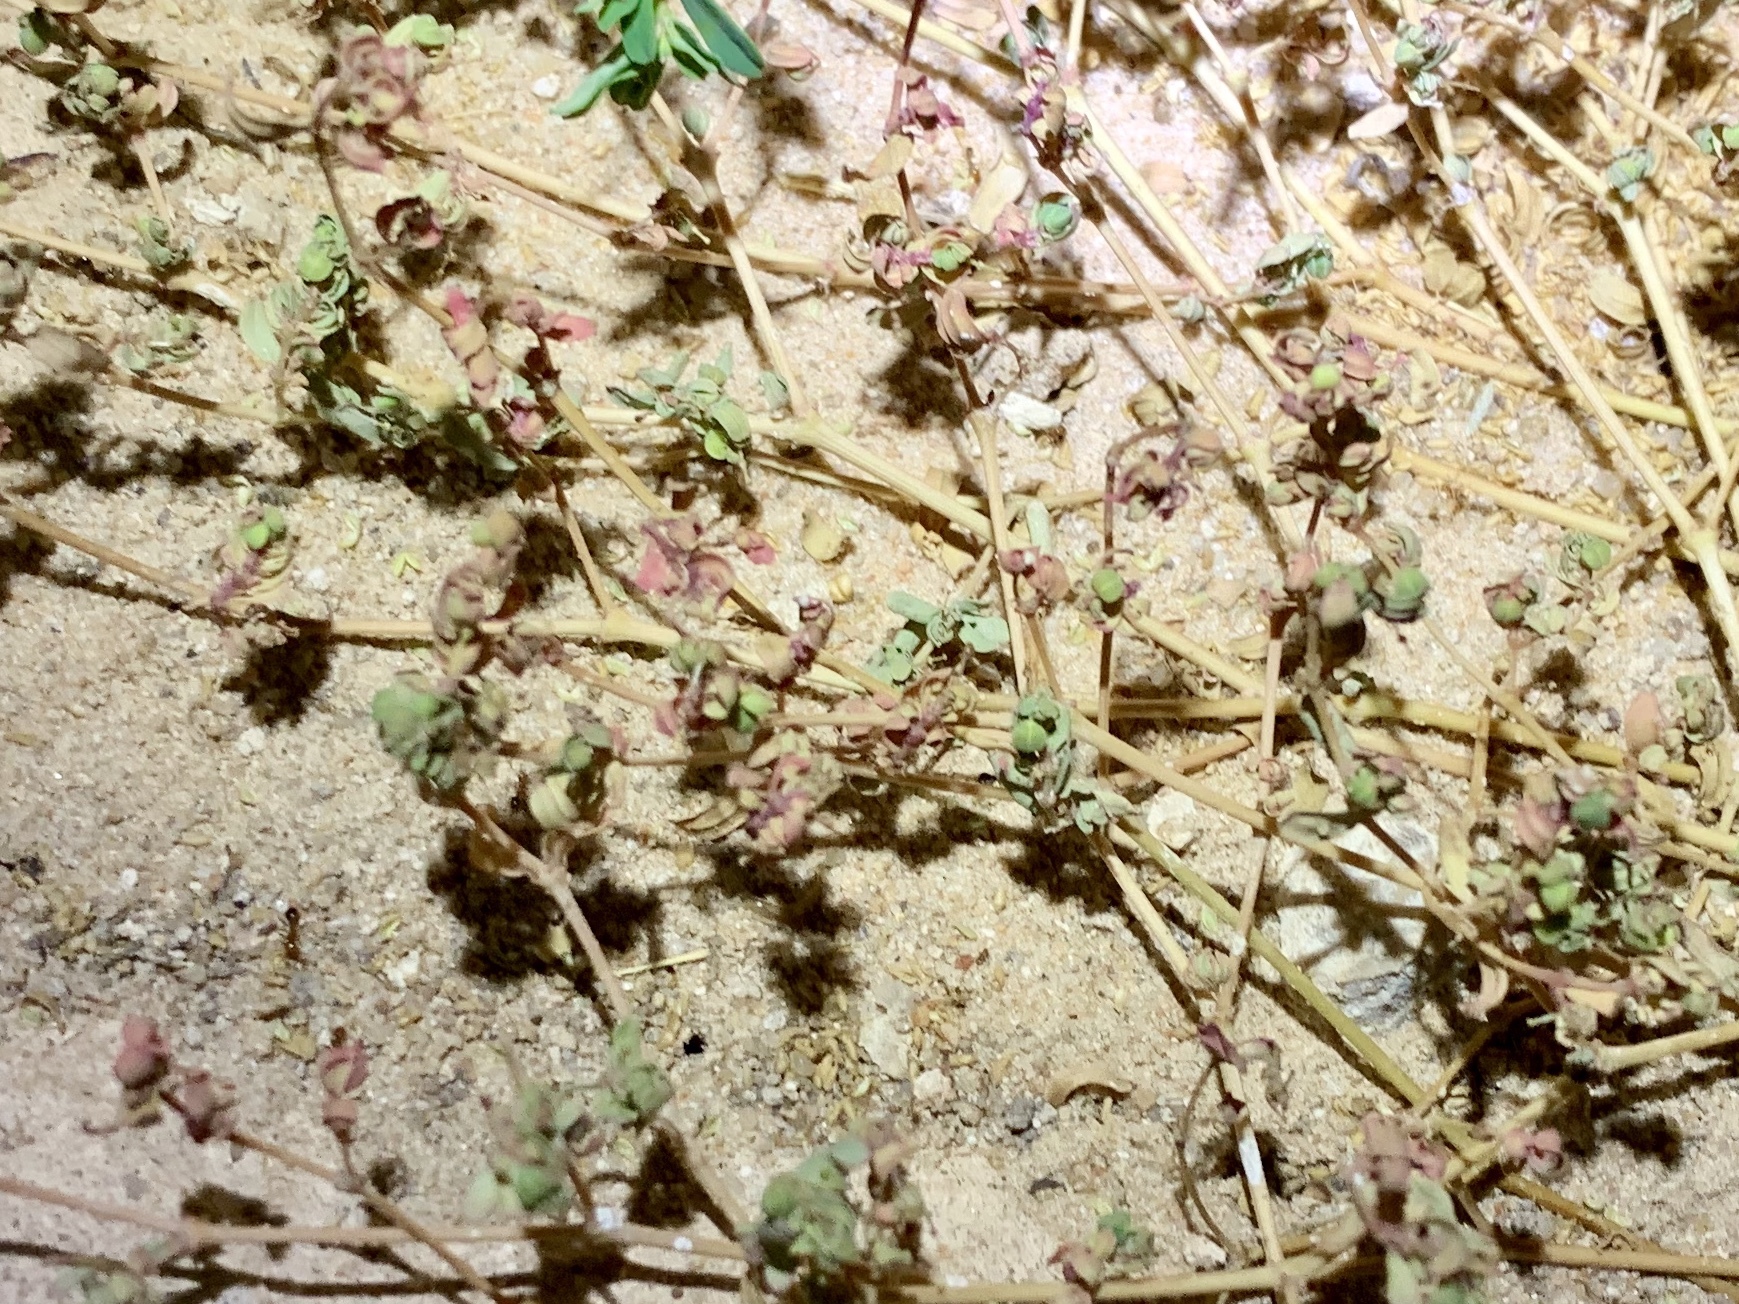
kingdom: Plantae
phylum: Tracheophyta
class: Magnoliopsida
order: Malpighiales
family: Euphorbiaceae
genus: Euphorbia
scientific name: Euphorbia glyptosperma
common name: Corrugate-seeded spurge
